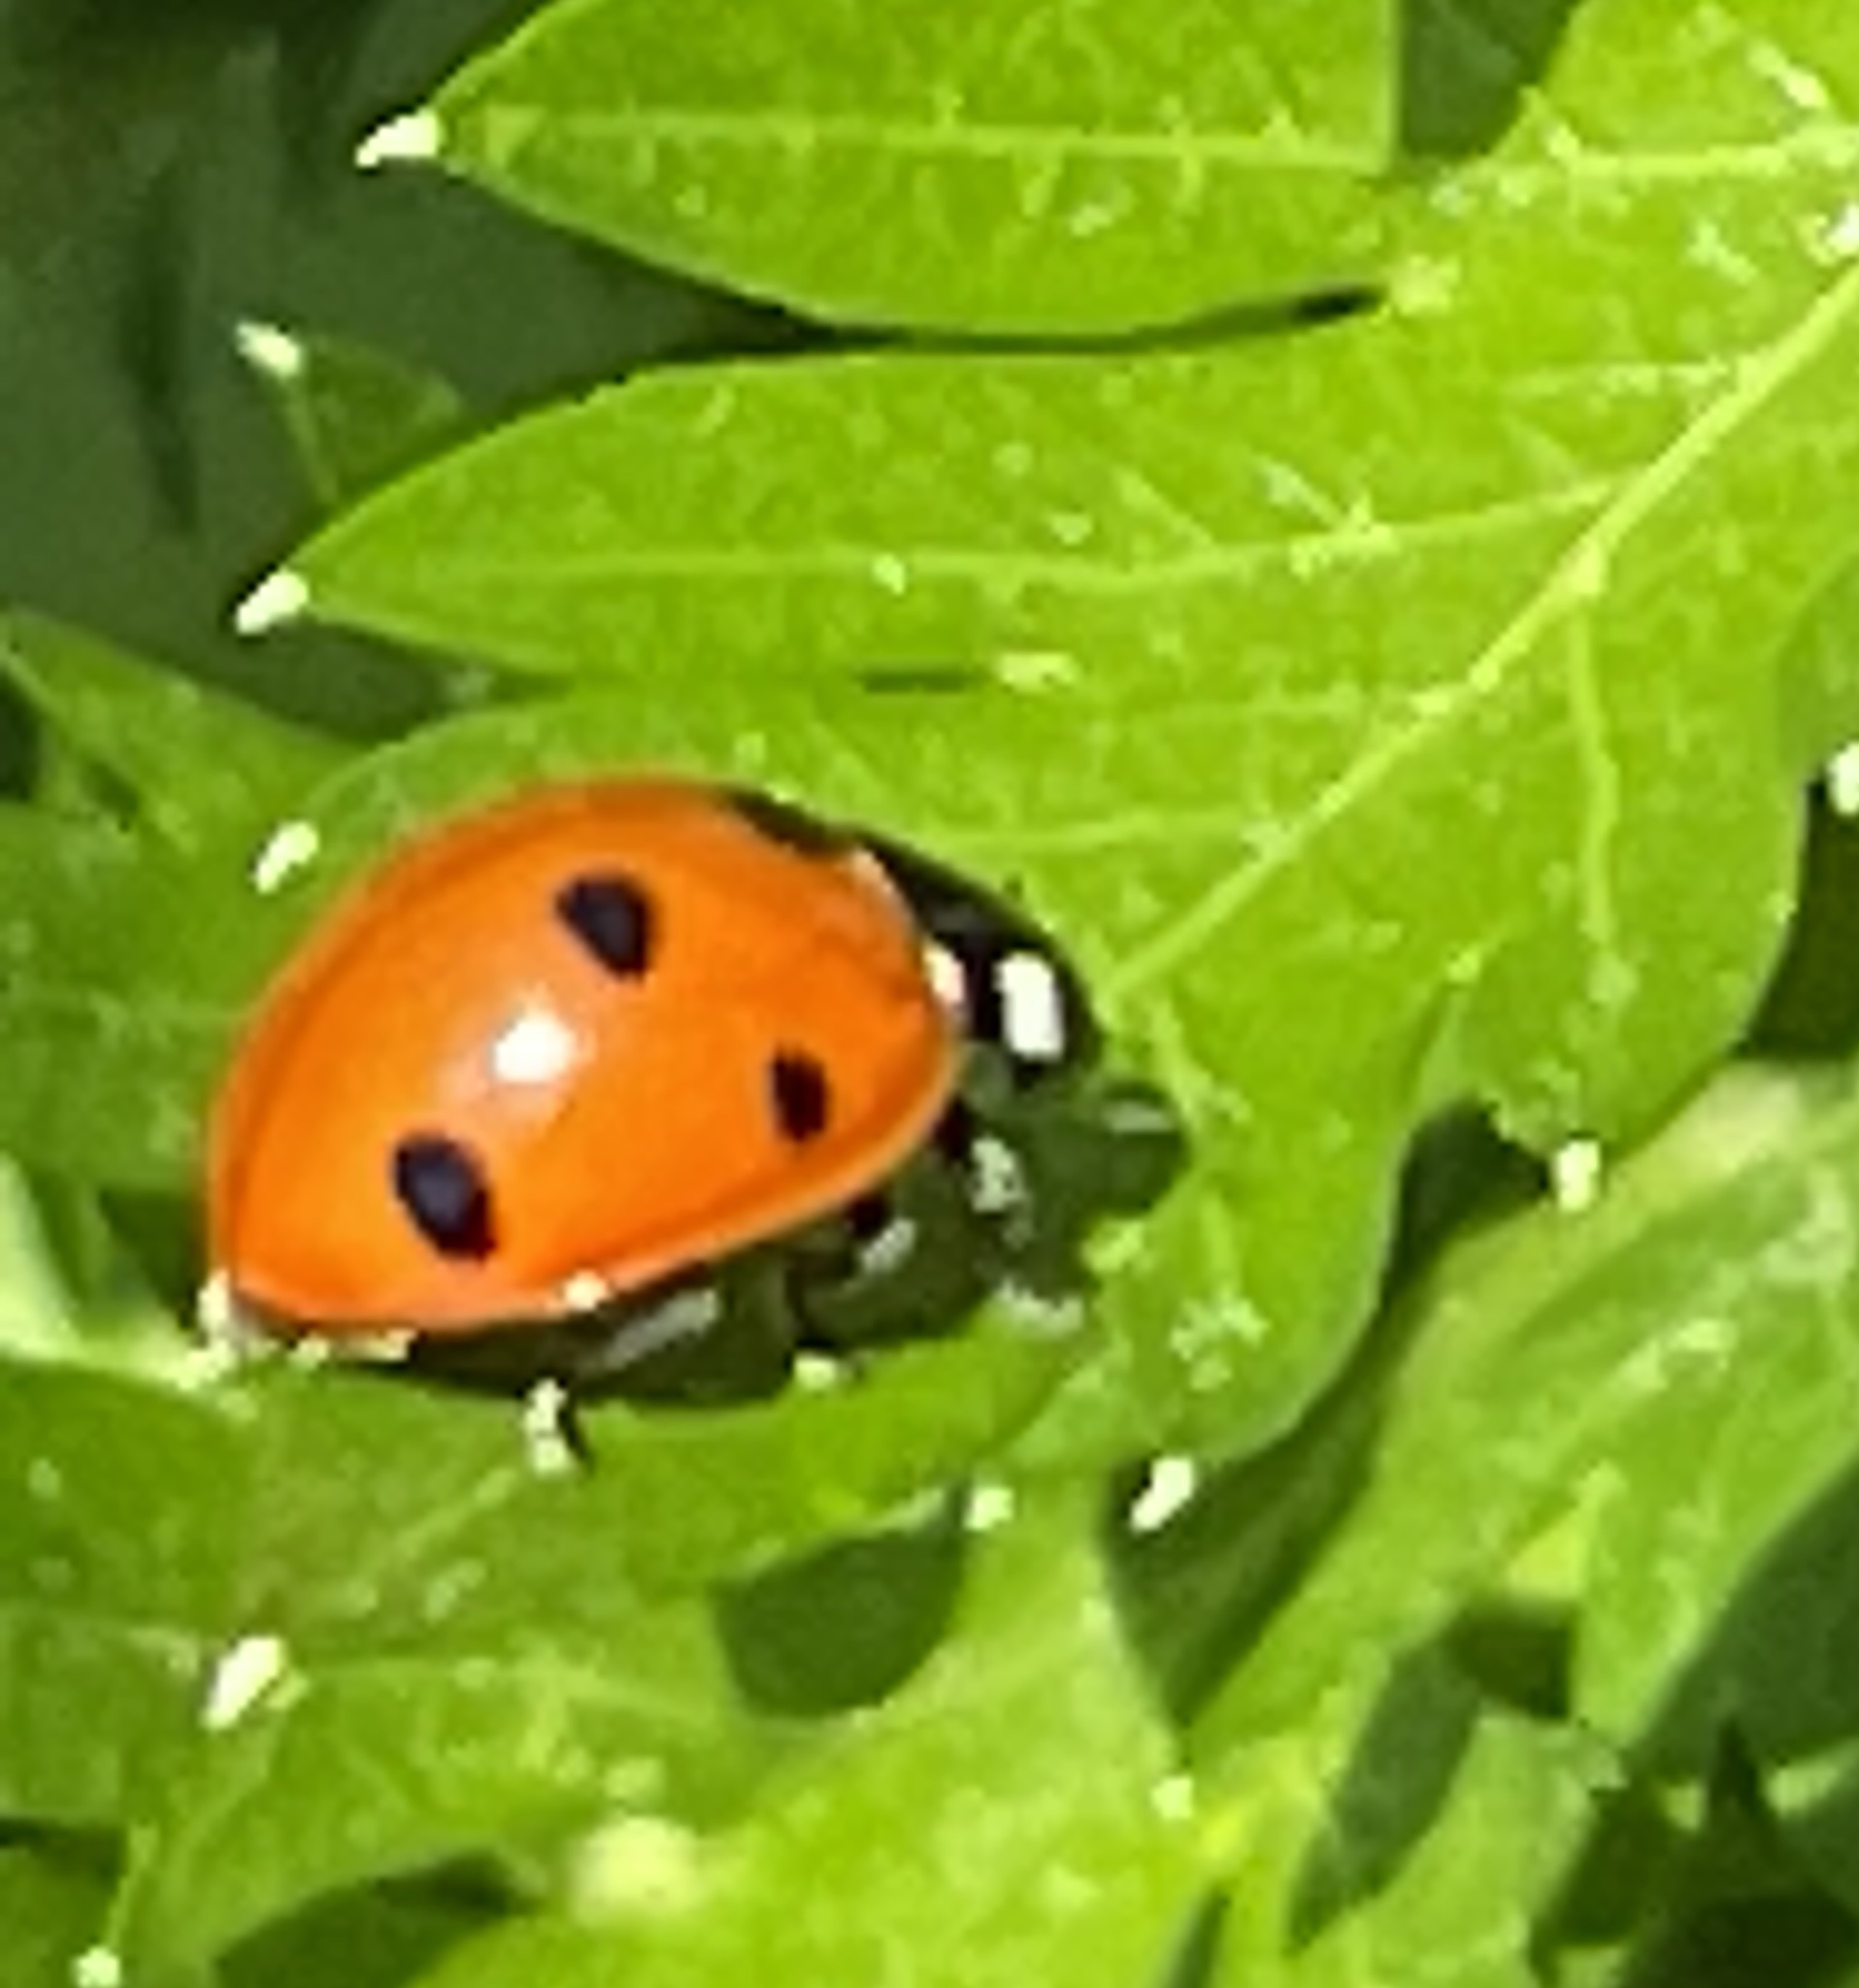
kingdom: Animalia
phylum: Arthropoda
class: Insecta
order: Coleoptera
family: Coccinellidae
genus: Coccinella
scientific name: Coccinella septempunctata
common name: Sevenspotted lady beetle
